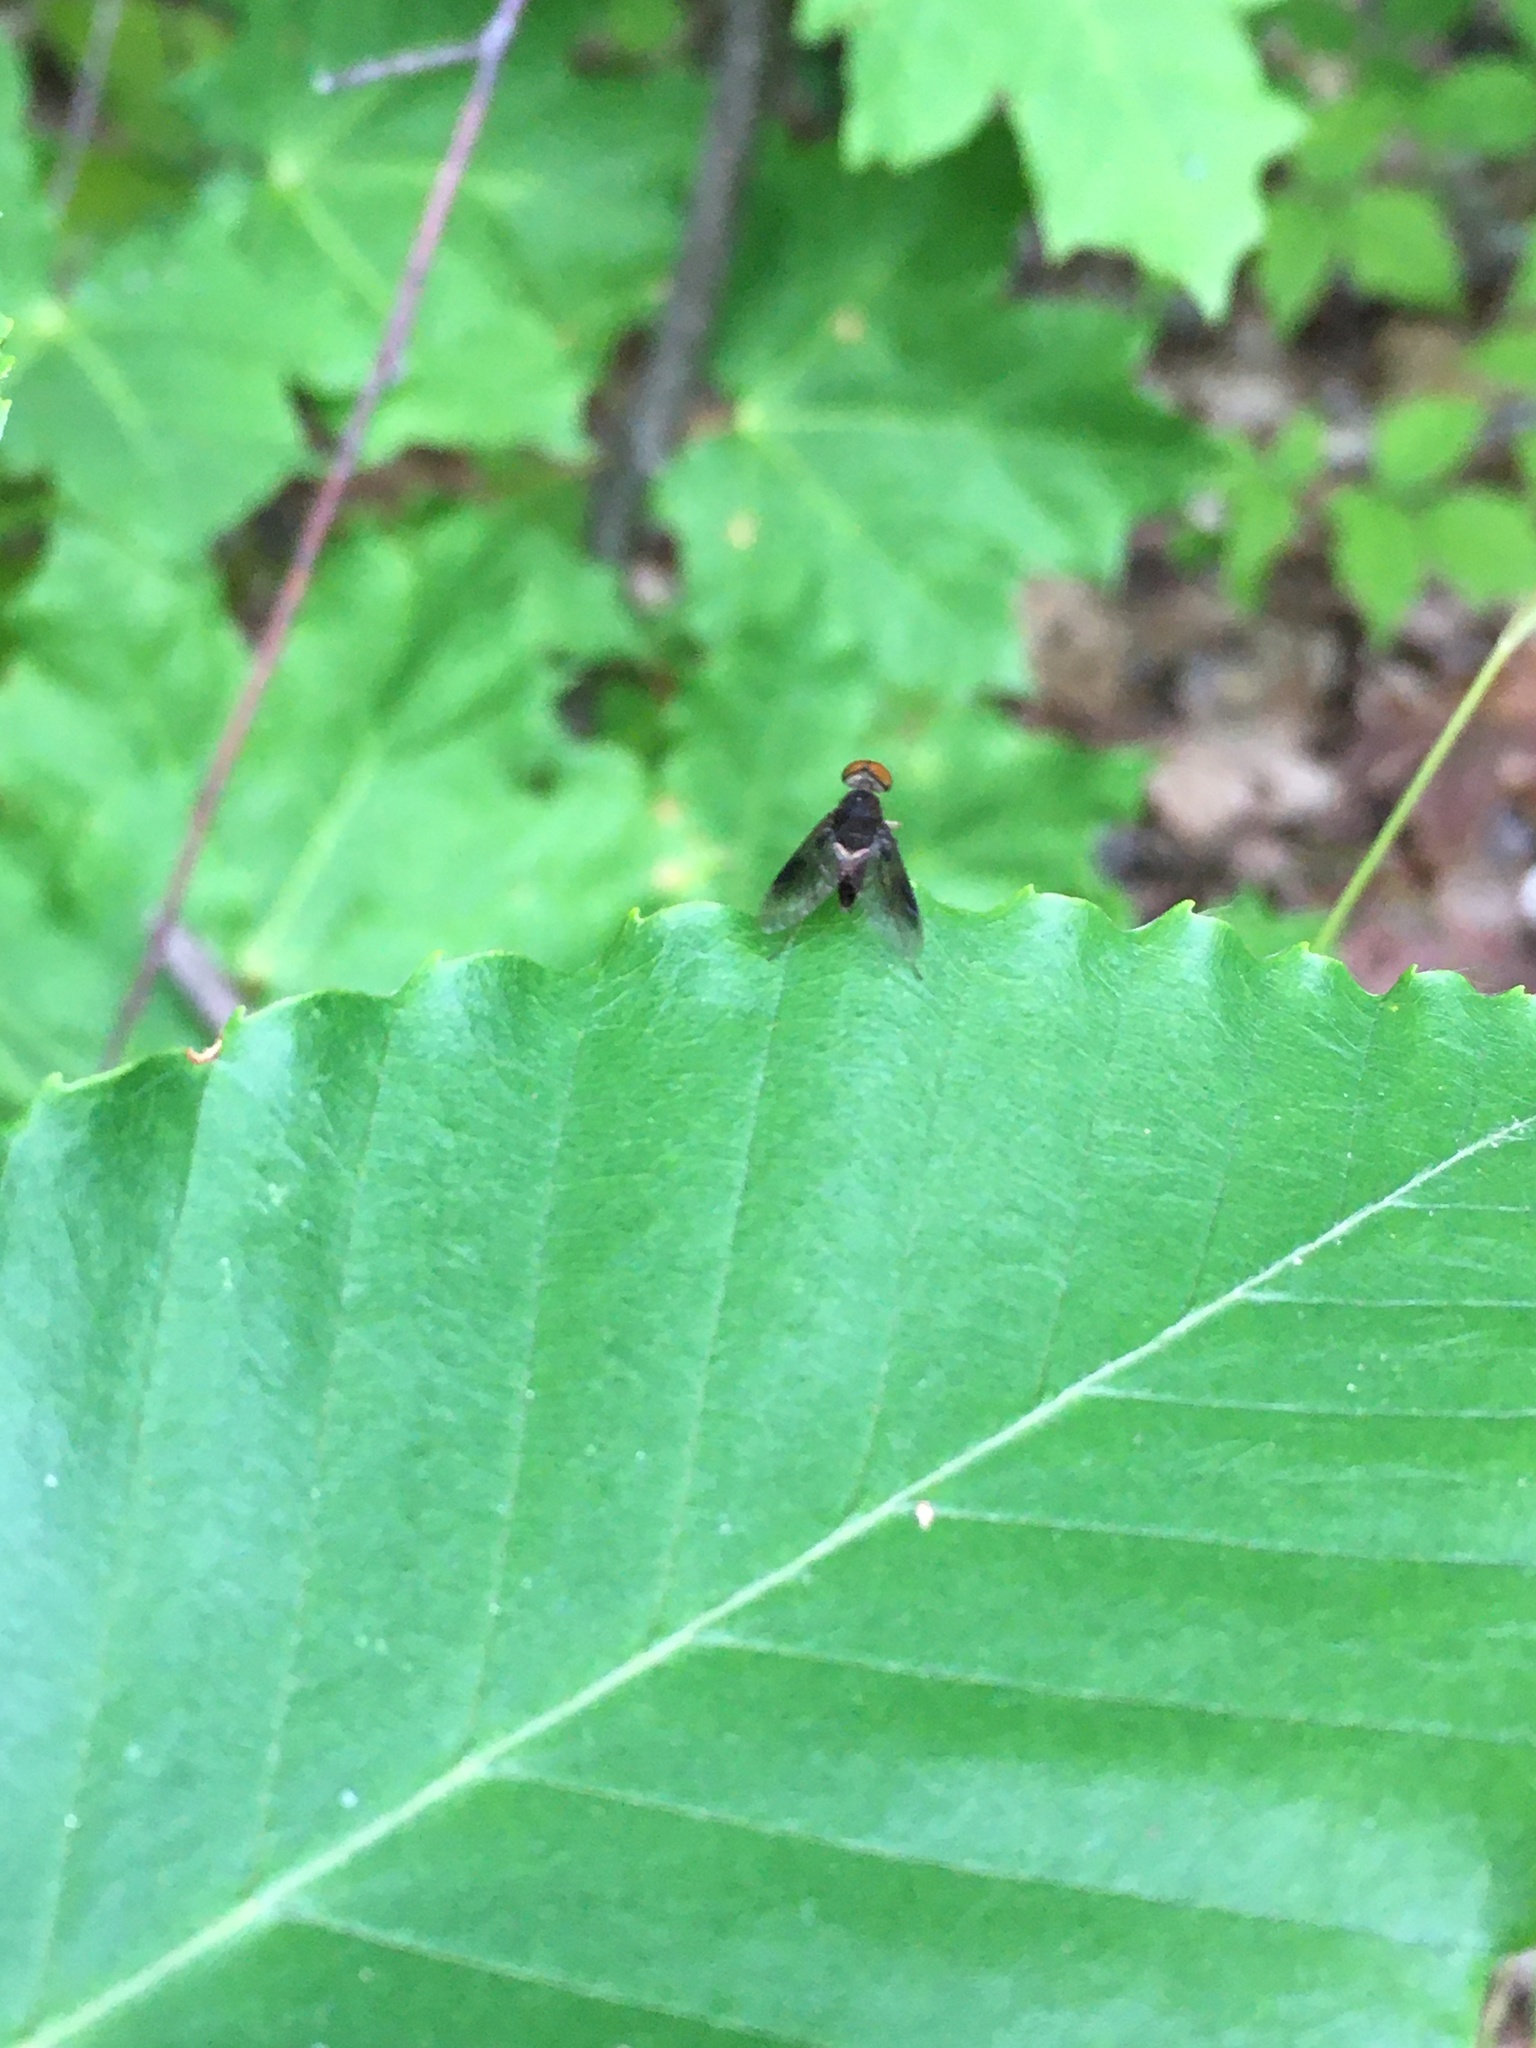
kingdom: Animalia
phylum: Arthropoda
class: Insecta
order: Diptera
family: Rhagionidae
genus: Chrysopilus
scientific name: Chrysopilus quadratus
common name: Quadrate snipe fly
